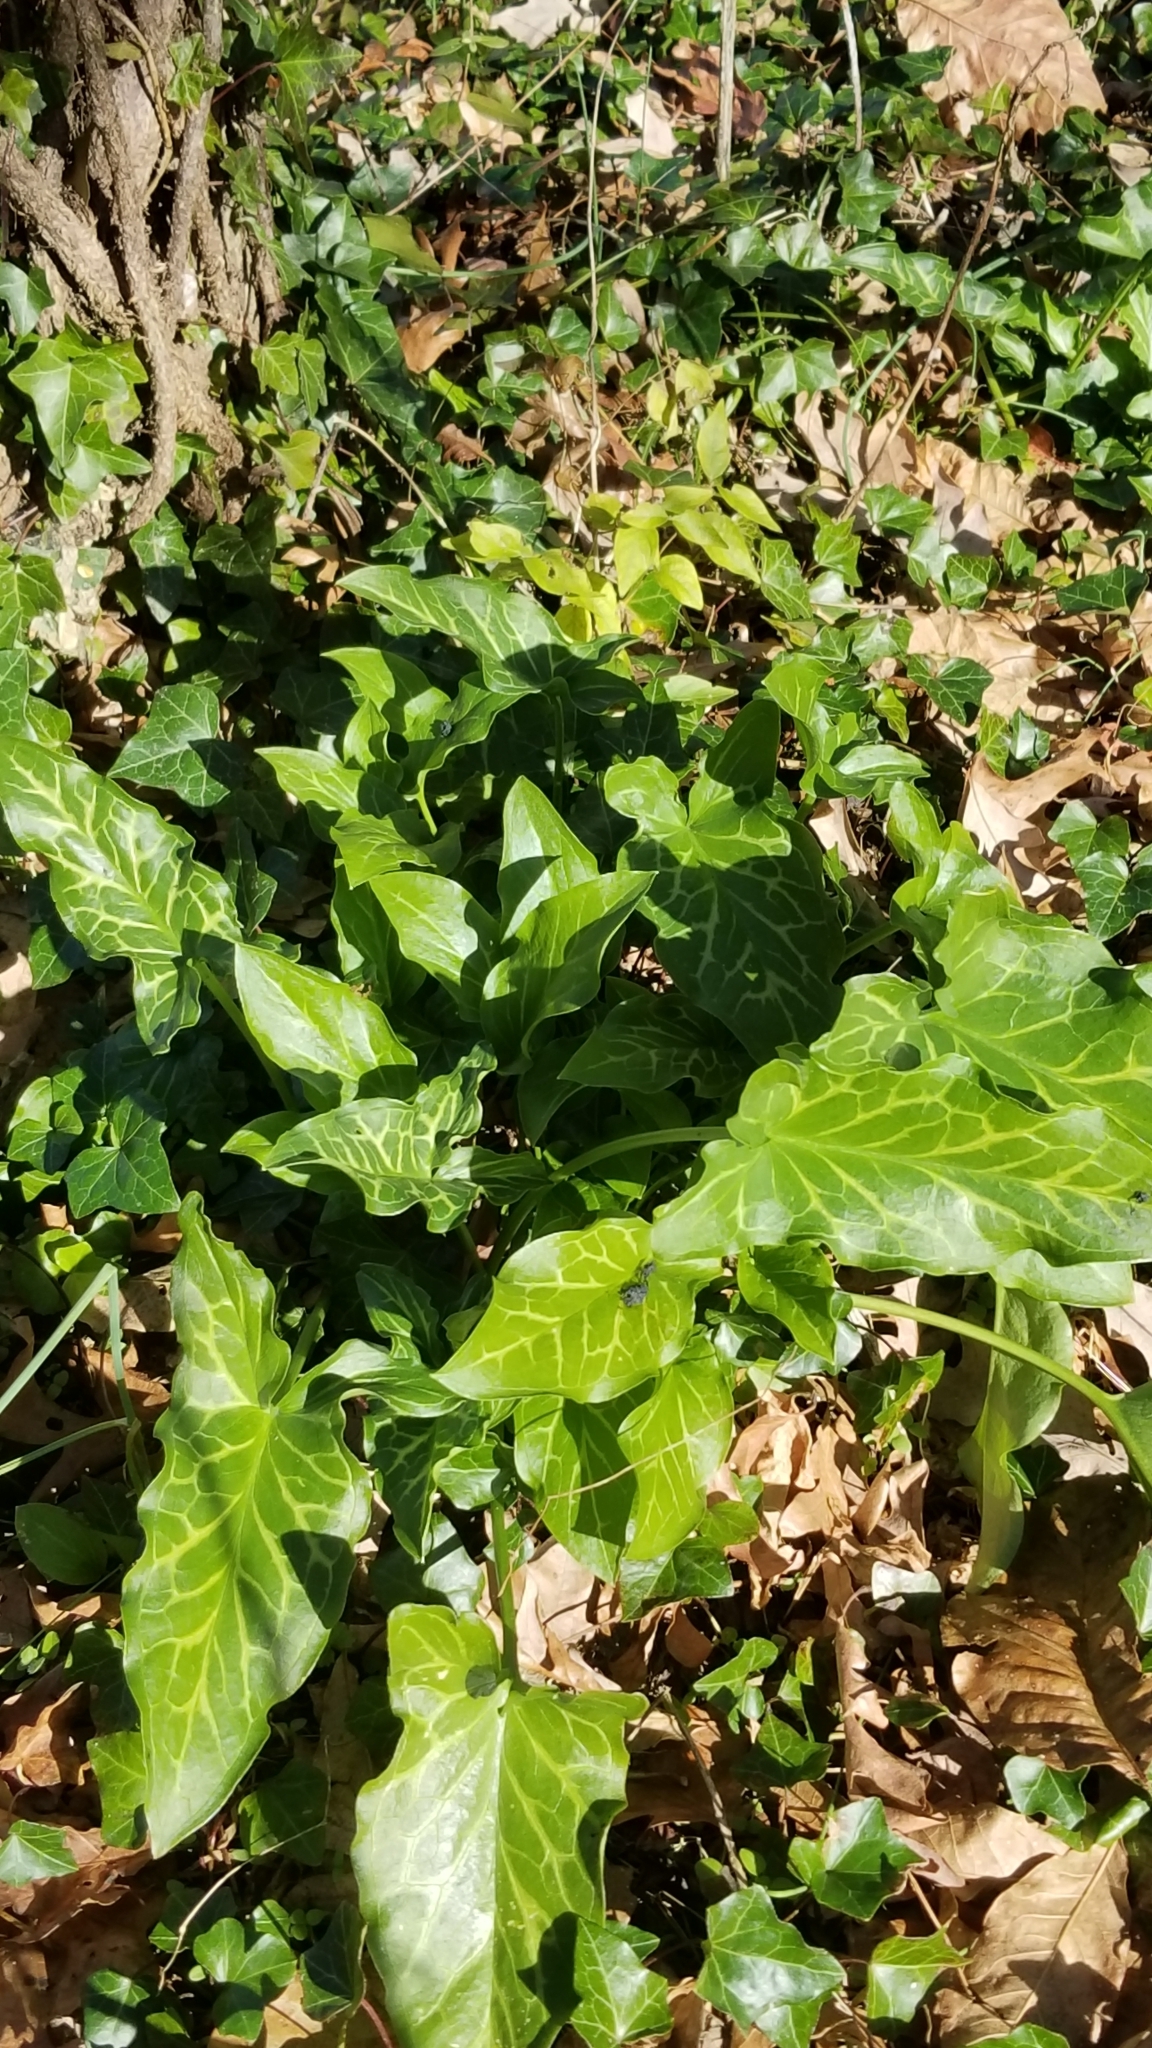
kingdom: Plantae
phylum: Tracheophyta
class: Liliopsida
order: Alismatales
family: Araceae
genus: Arum
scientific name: Arum italicum
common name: Italian lords-and-ladies
